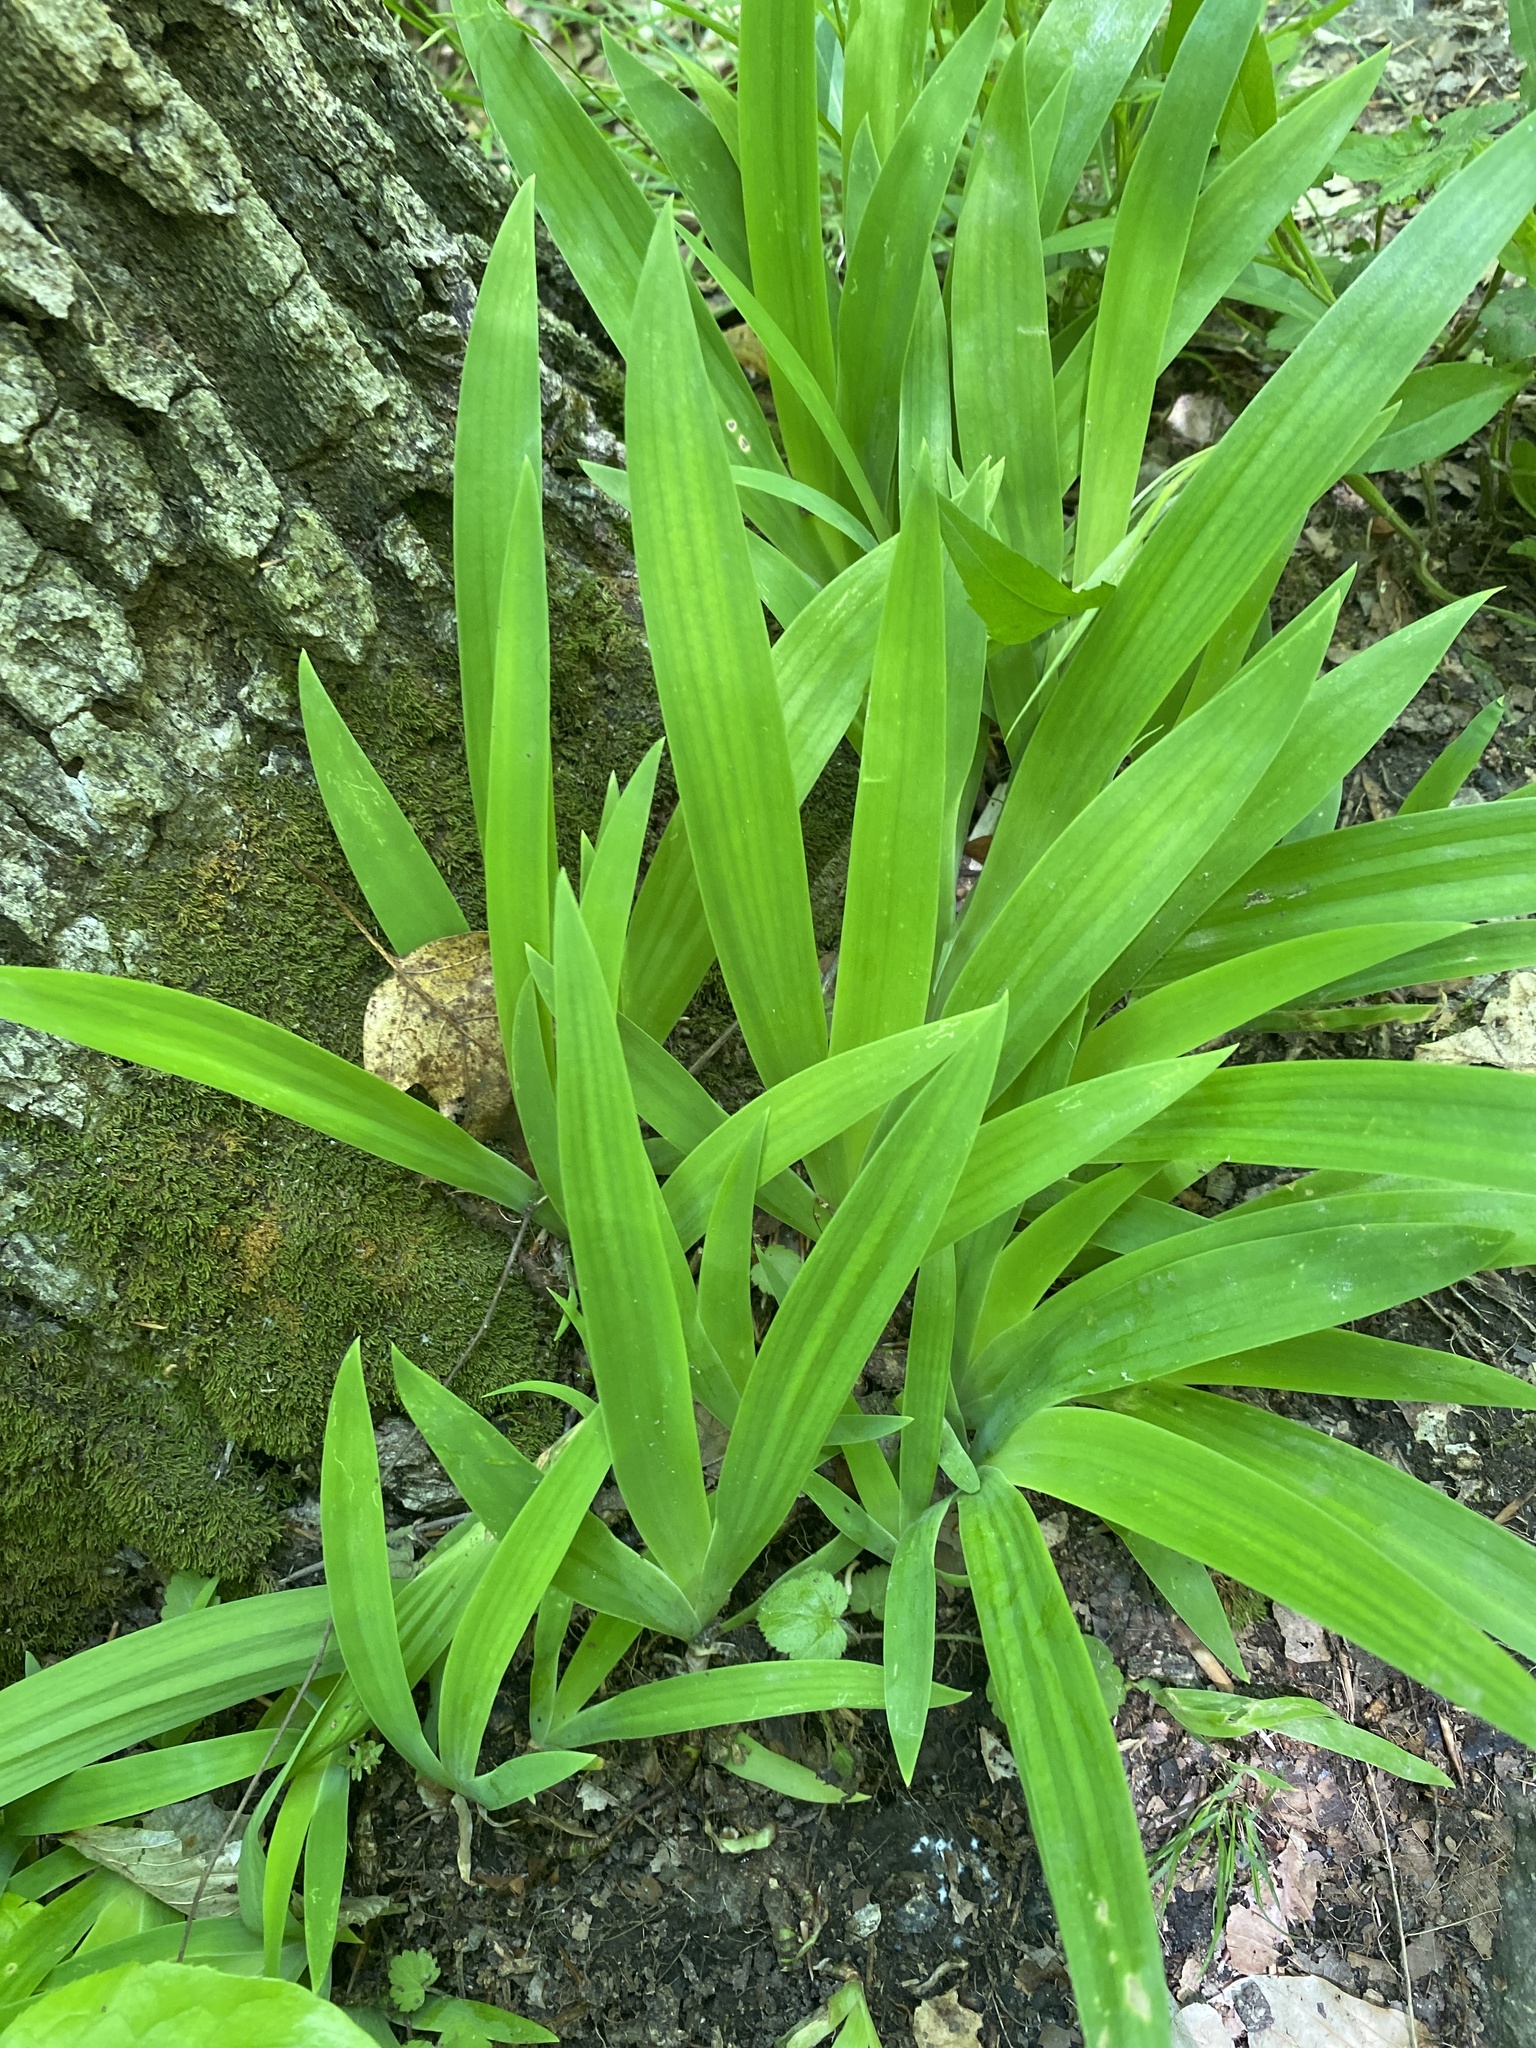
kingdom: Plantae
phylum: Tracheophyta
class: Liliopsida
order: Asparagales
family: Iridaceae
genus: Iris
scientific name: Iris cristata
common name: Crested iris
